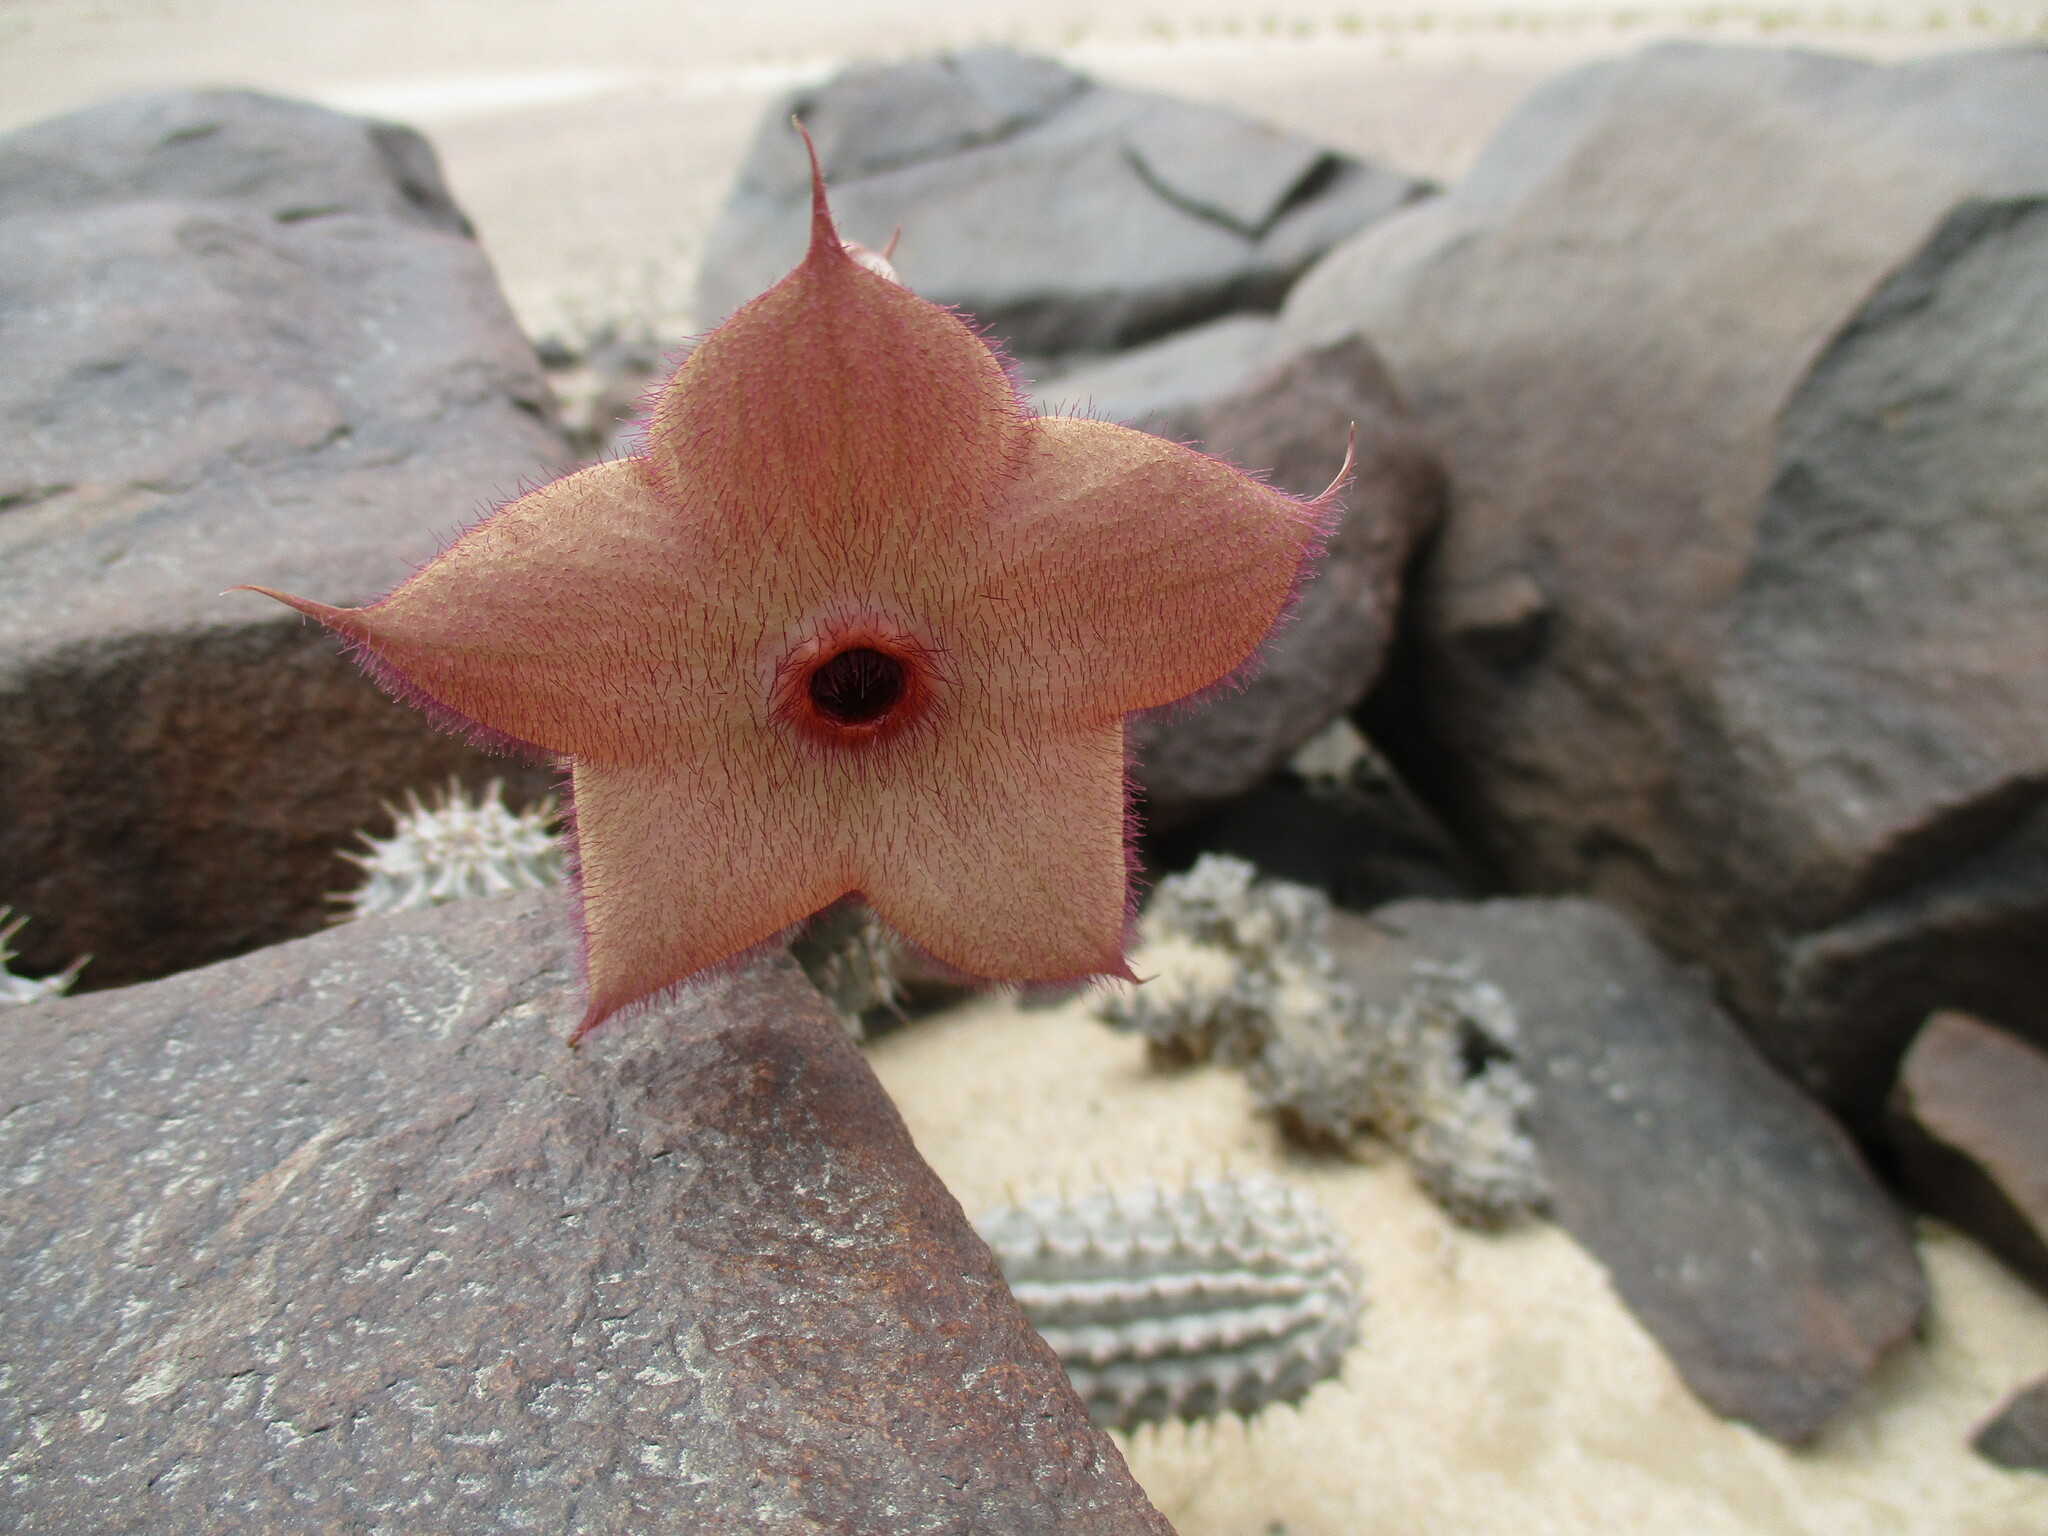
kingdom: Plantae
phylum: Tracheophyta
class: Magnoliopsida
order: Gentianales
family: Apocynaceae
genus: Ceropegia
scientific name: Ceropegia currorii
